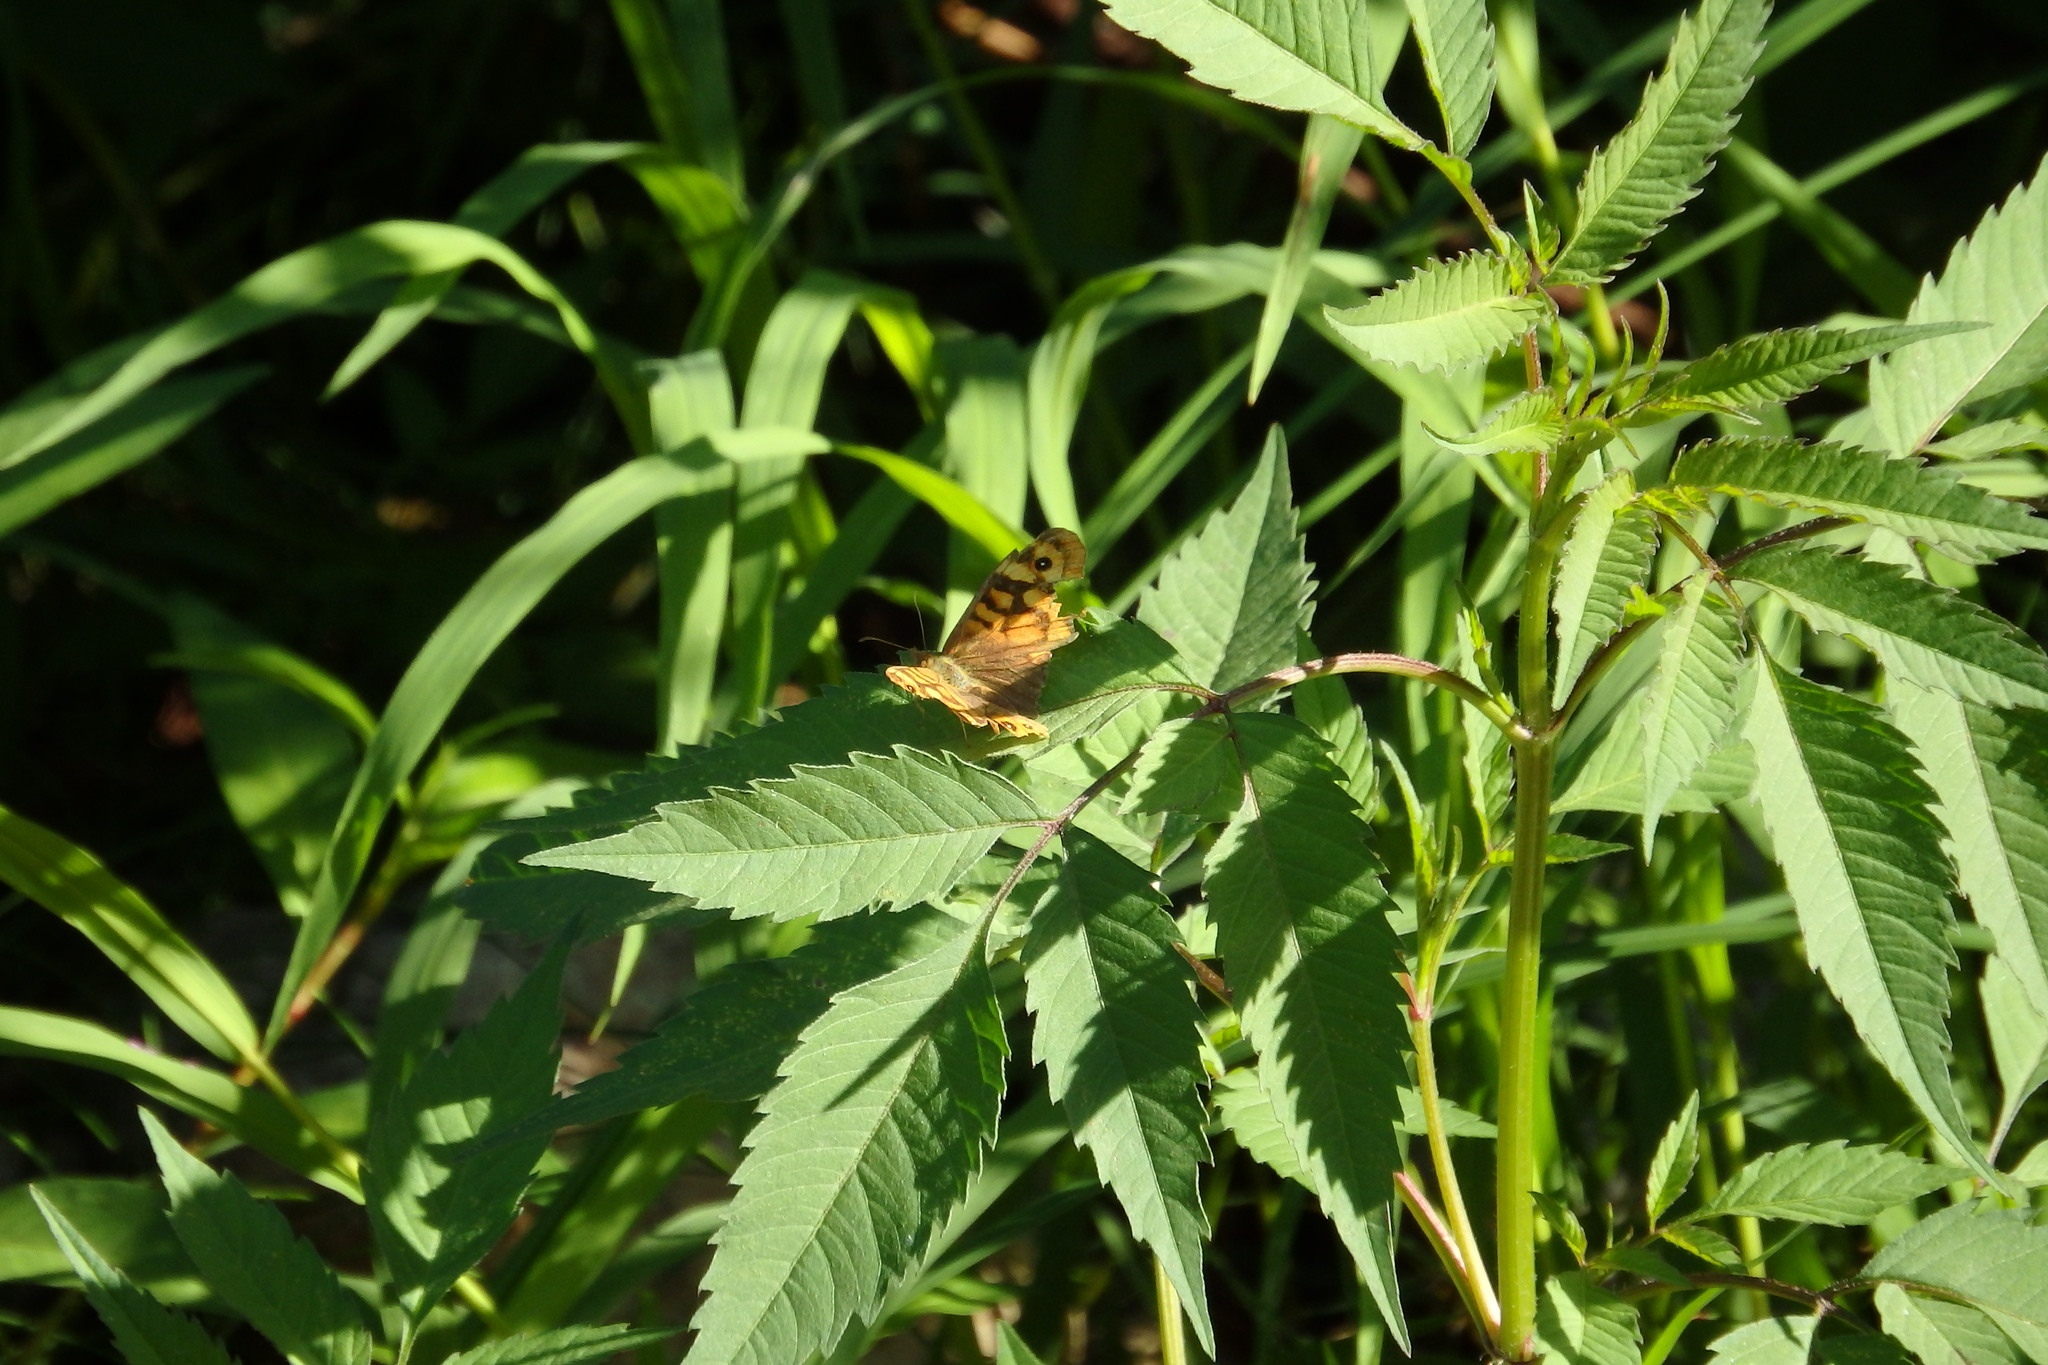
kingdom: Animalia
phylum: Arthropoda
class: Insecta
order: Lepidoptera
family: Nymphalidae
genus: Pararge
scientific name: Pararge aegeria
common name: Speckled wood
